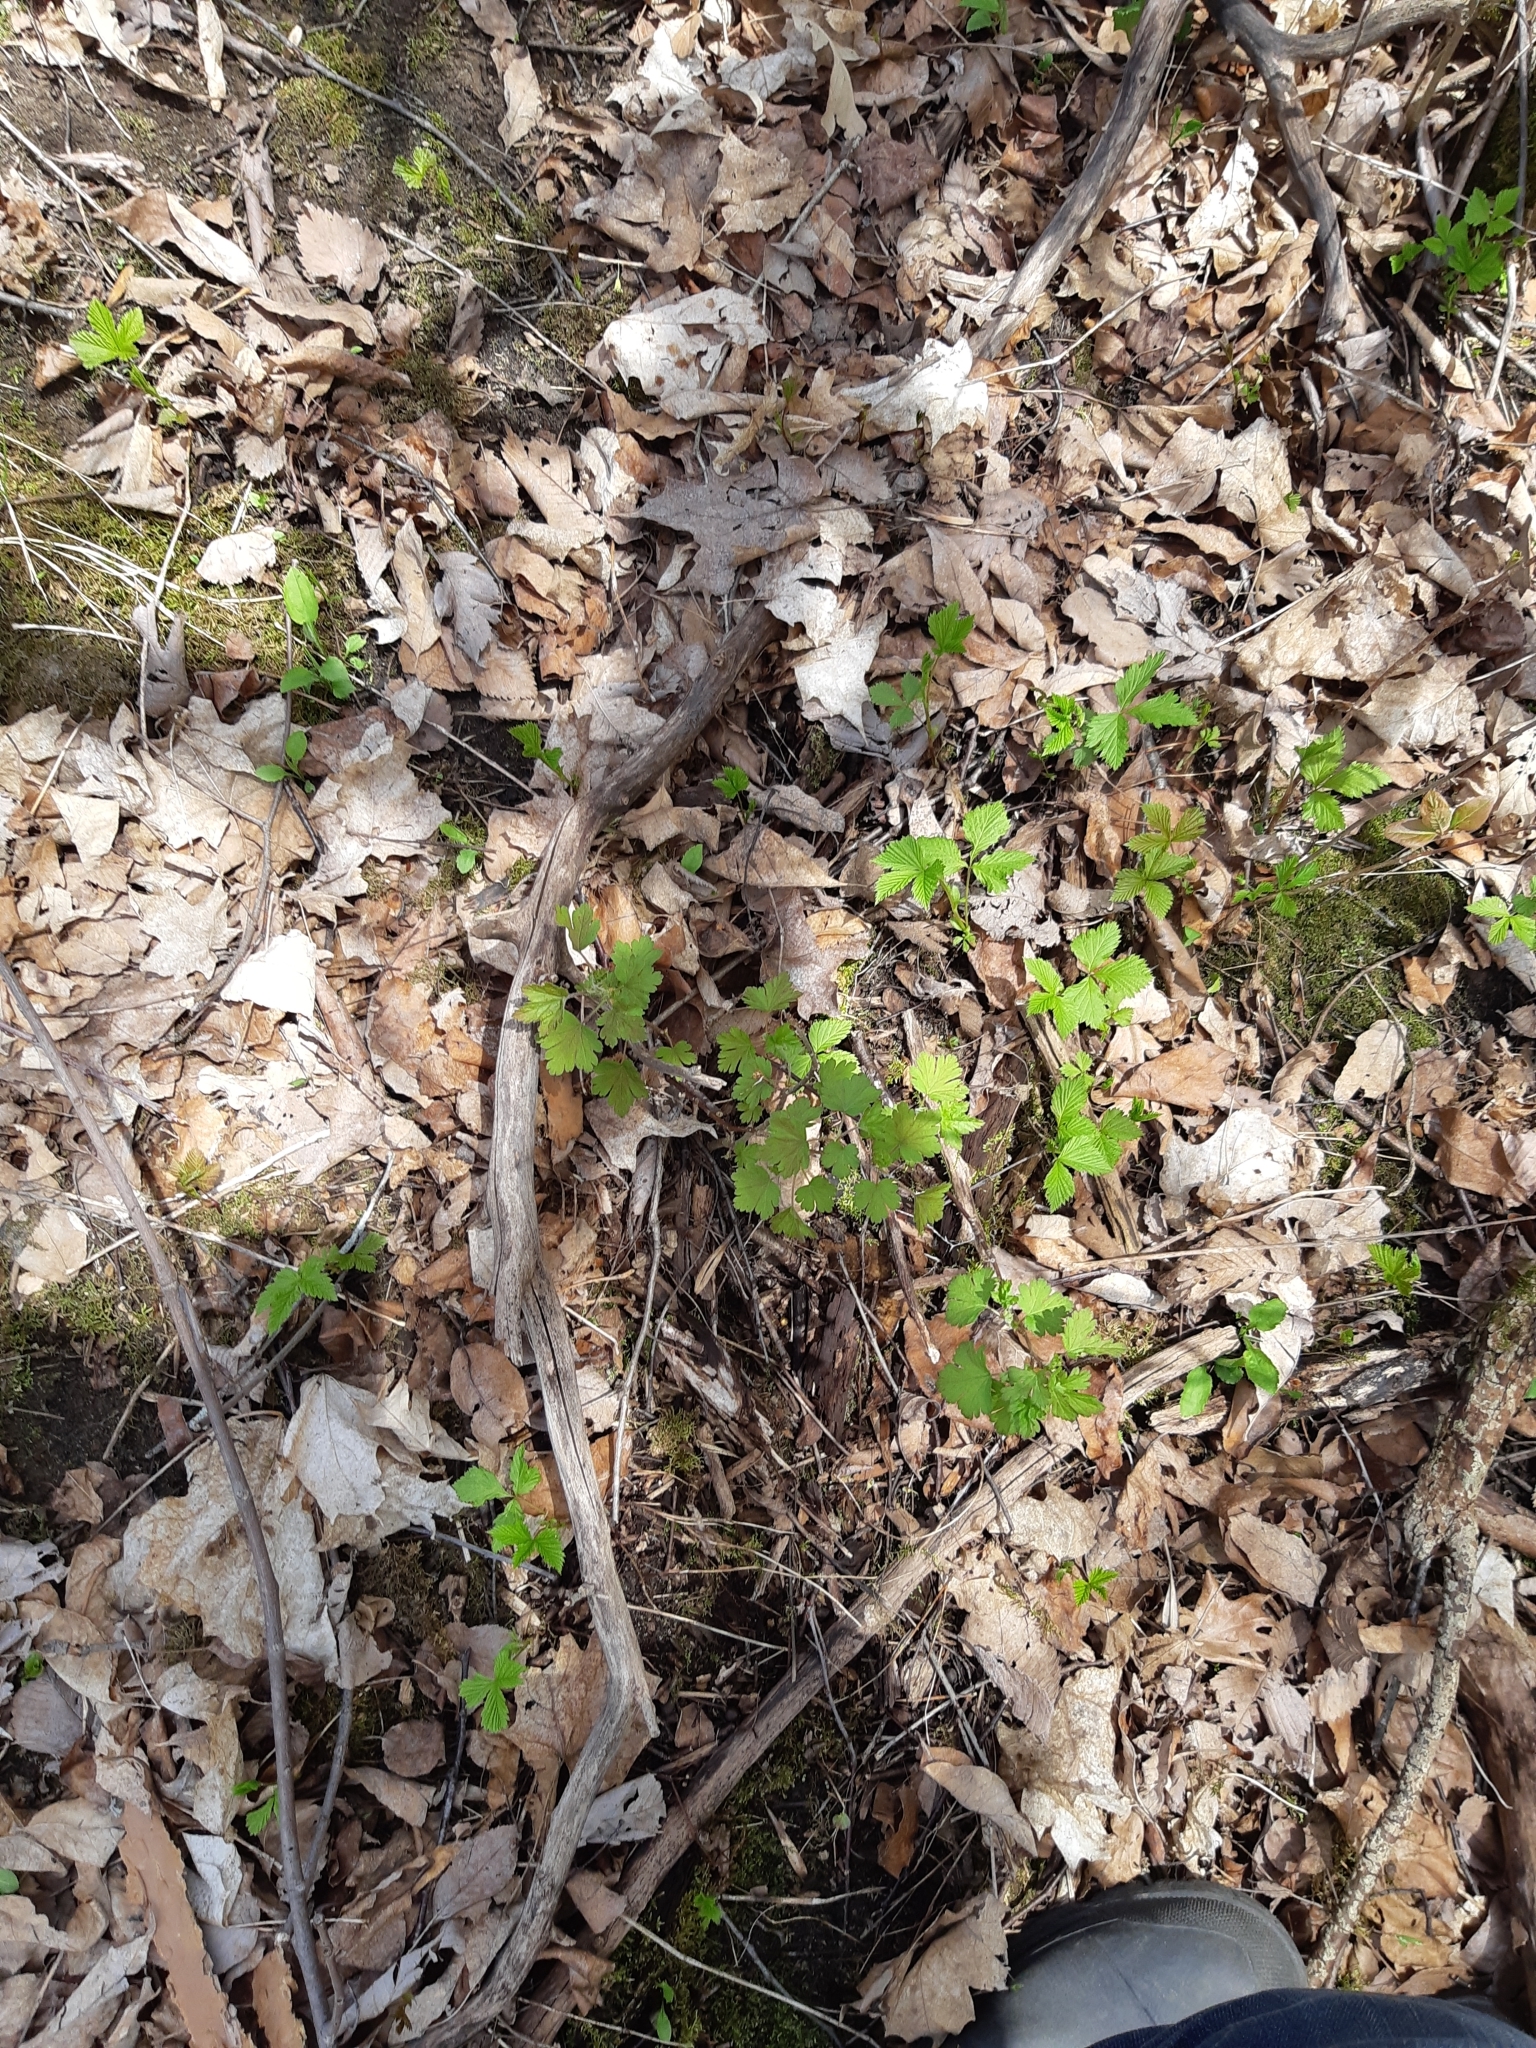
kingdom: Plantae
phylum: Tracheophyta
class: Magnoliopsida
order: Saxifragales
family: Grossulariaceae
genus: Ribes
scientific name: Ribes cynosbati
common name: American gooseberry
